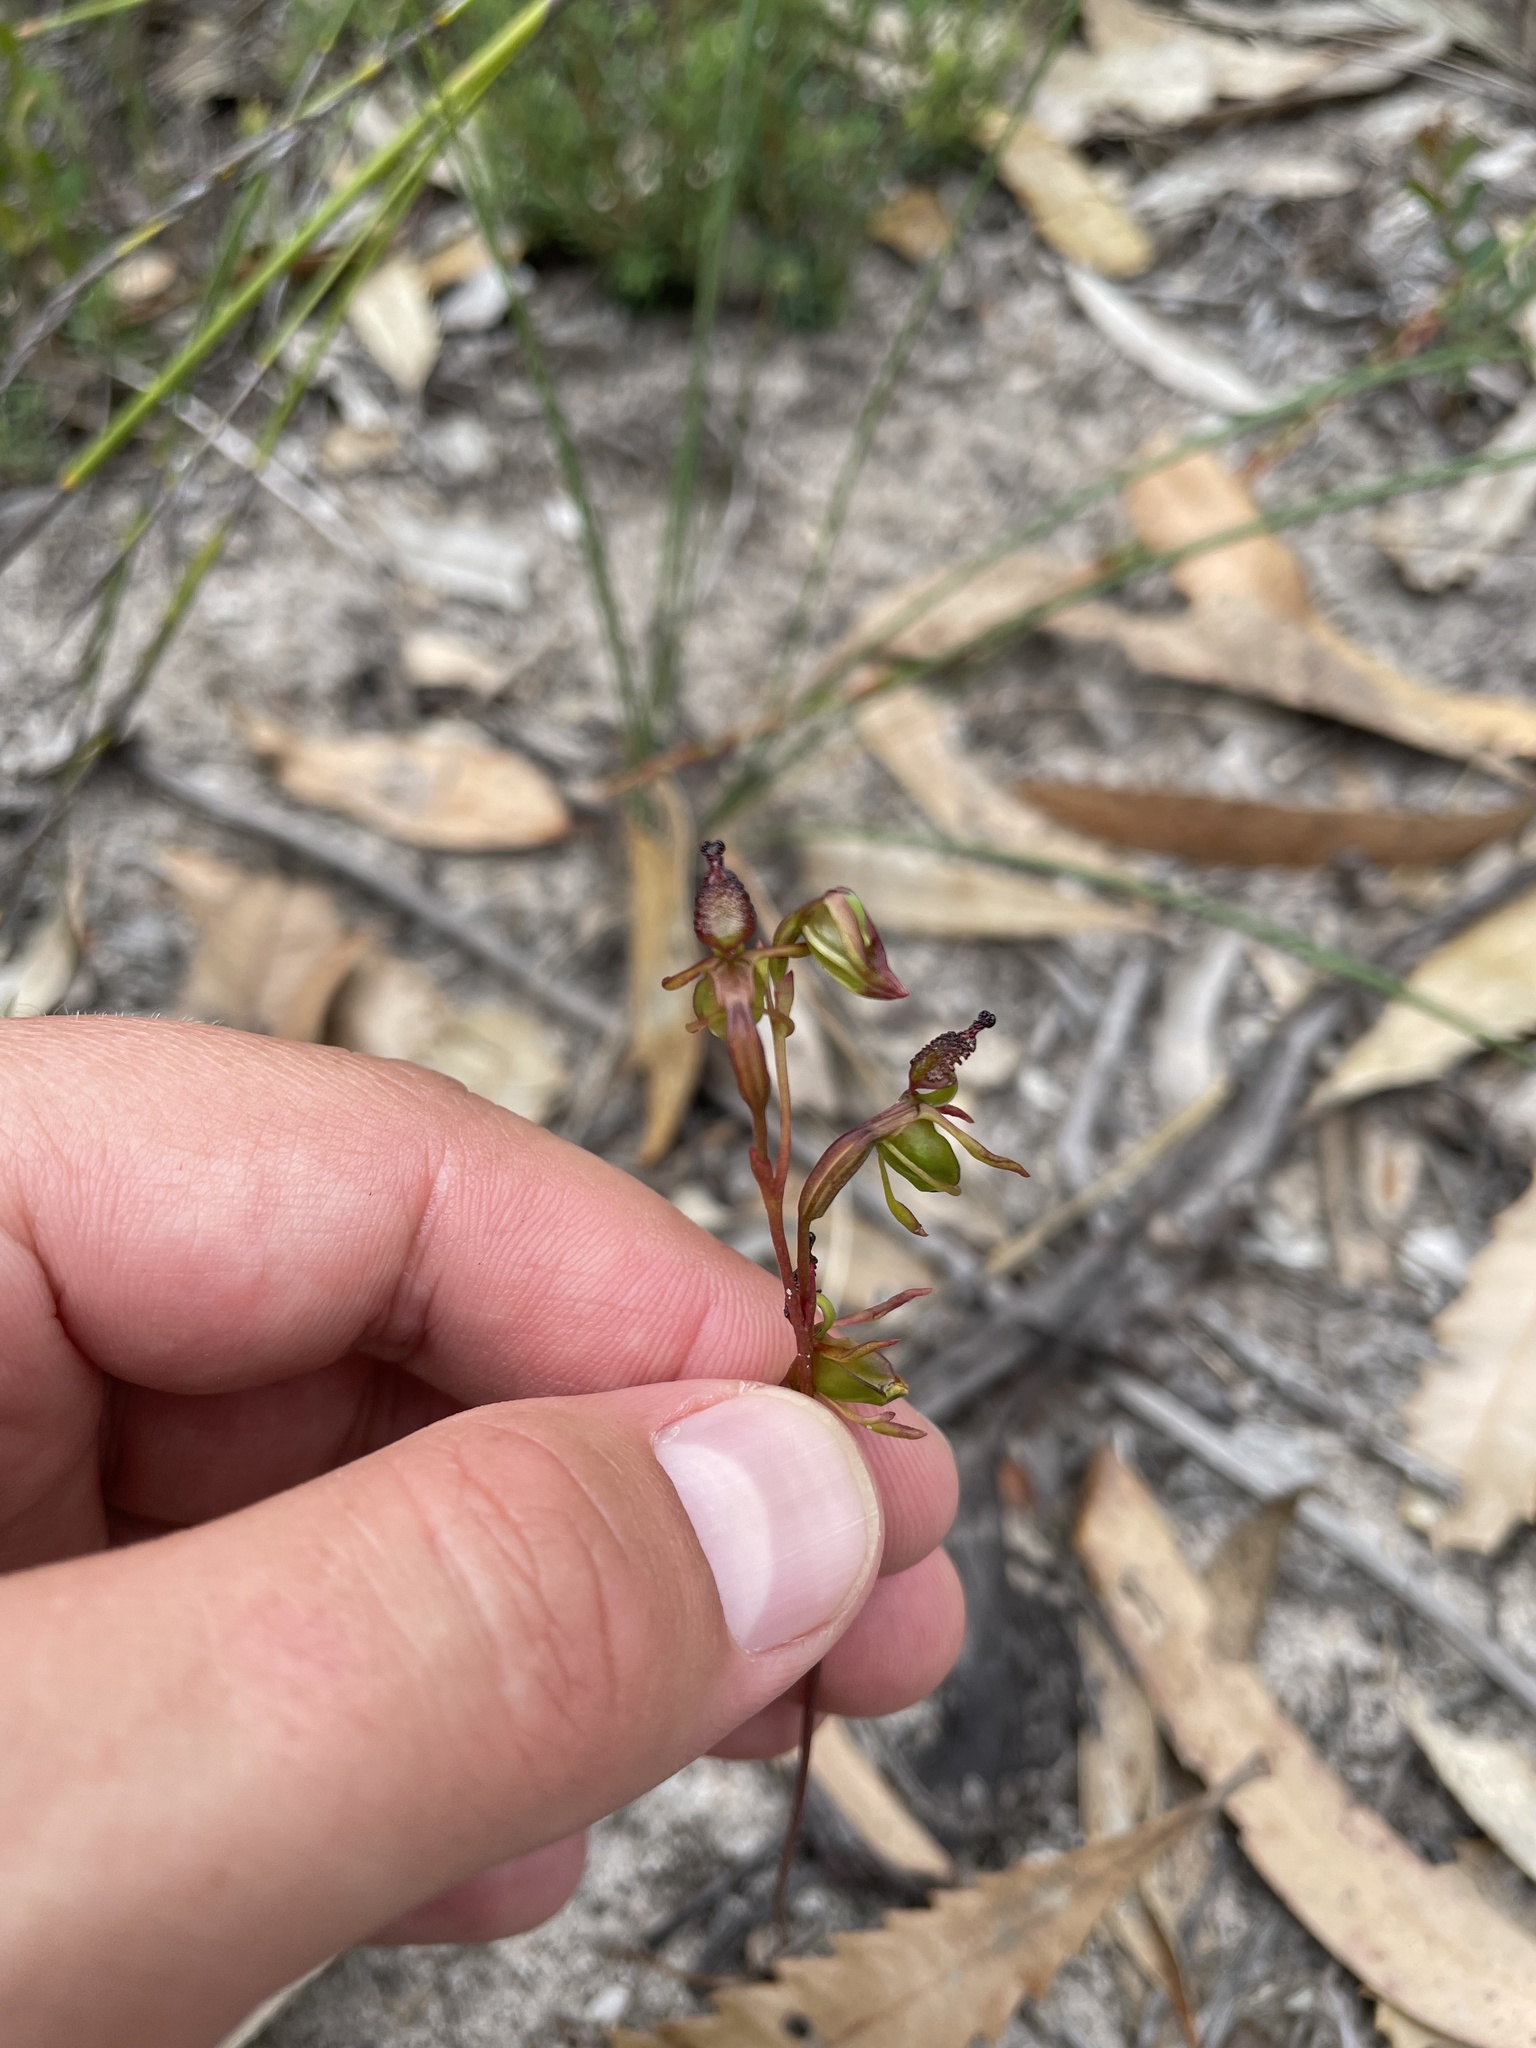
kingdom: Plantae
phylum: Tracheophyta
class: Liliopsida
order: Asparagales
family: Orchidaceae
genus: Caleana
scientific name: Caleana minor
